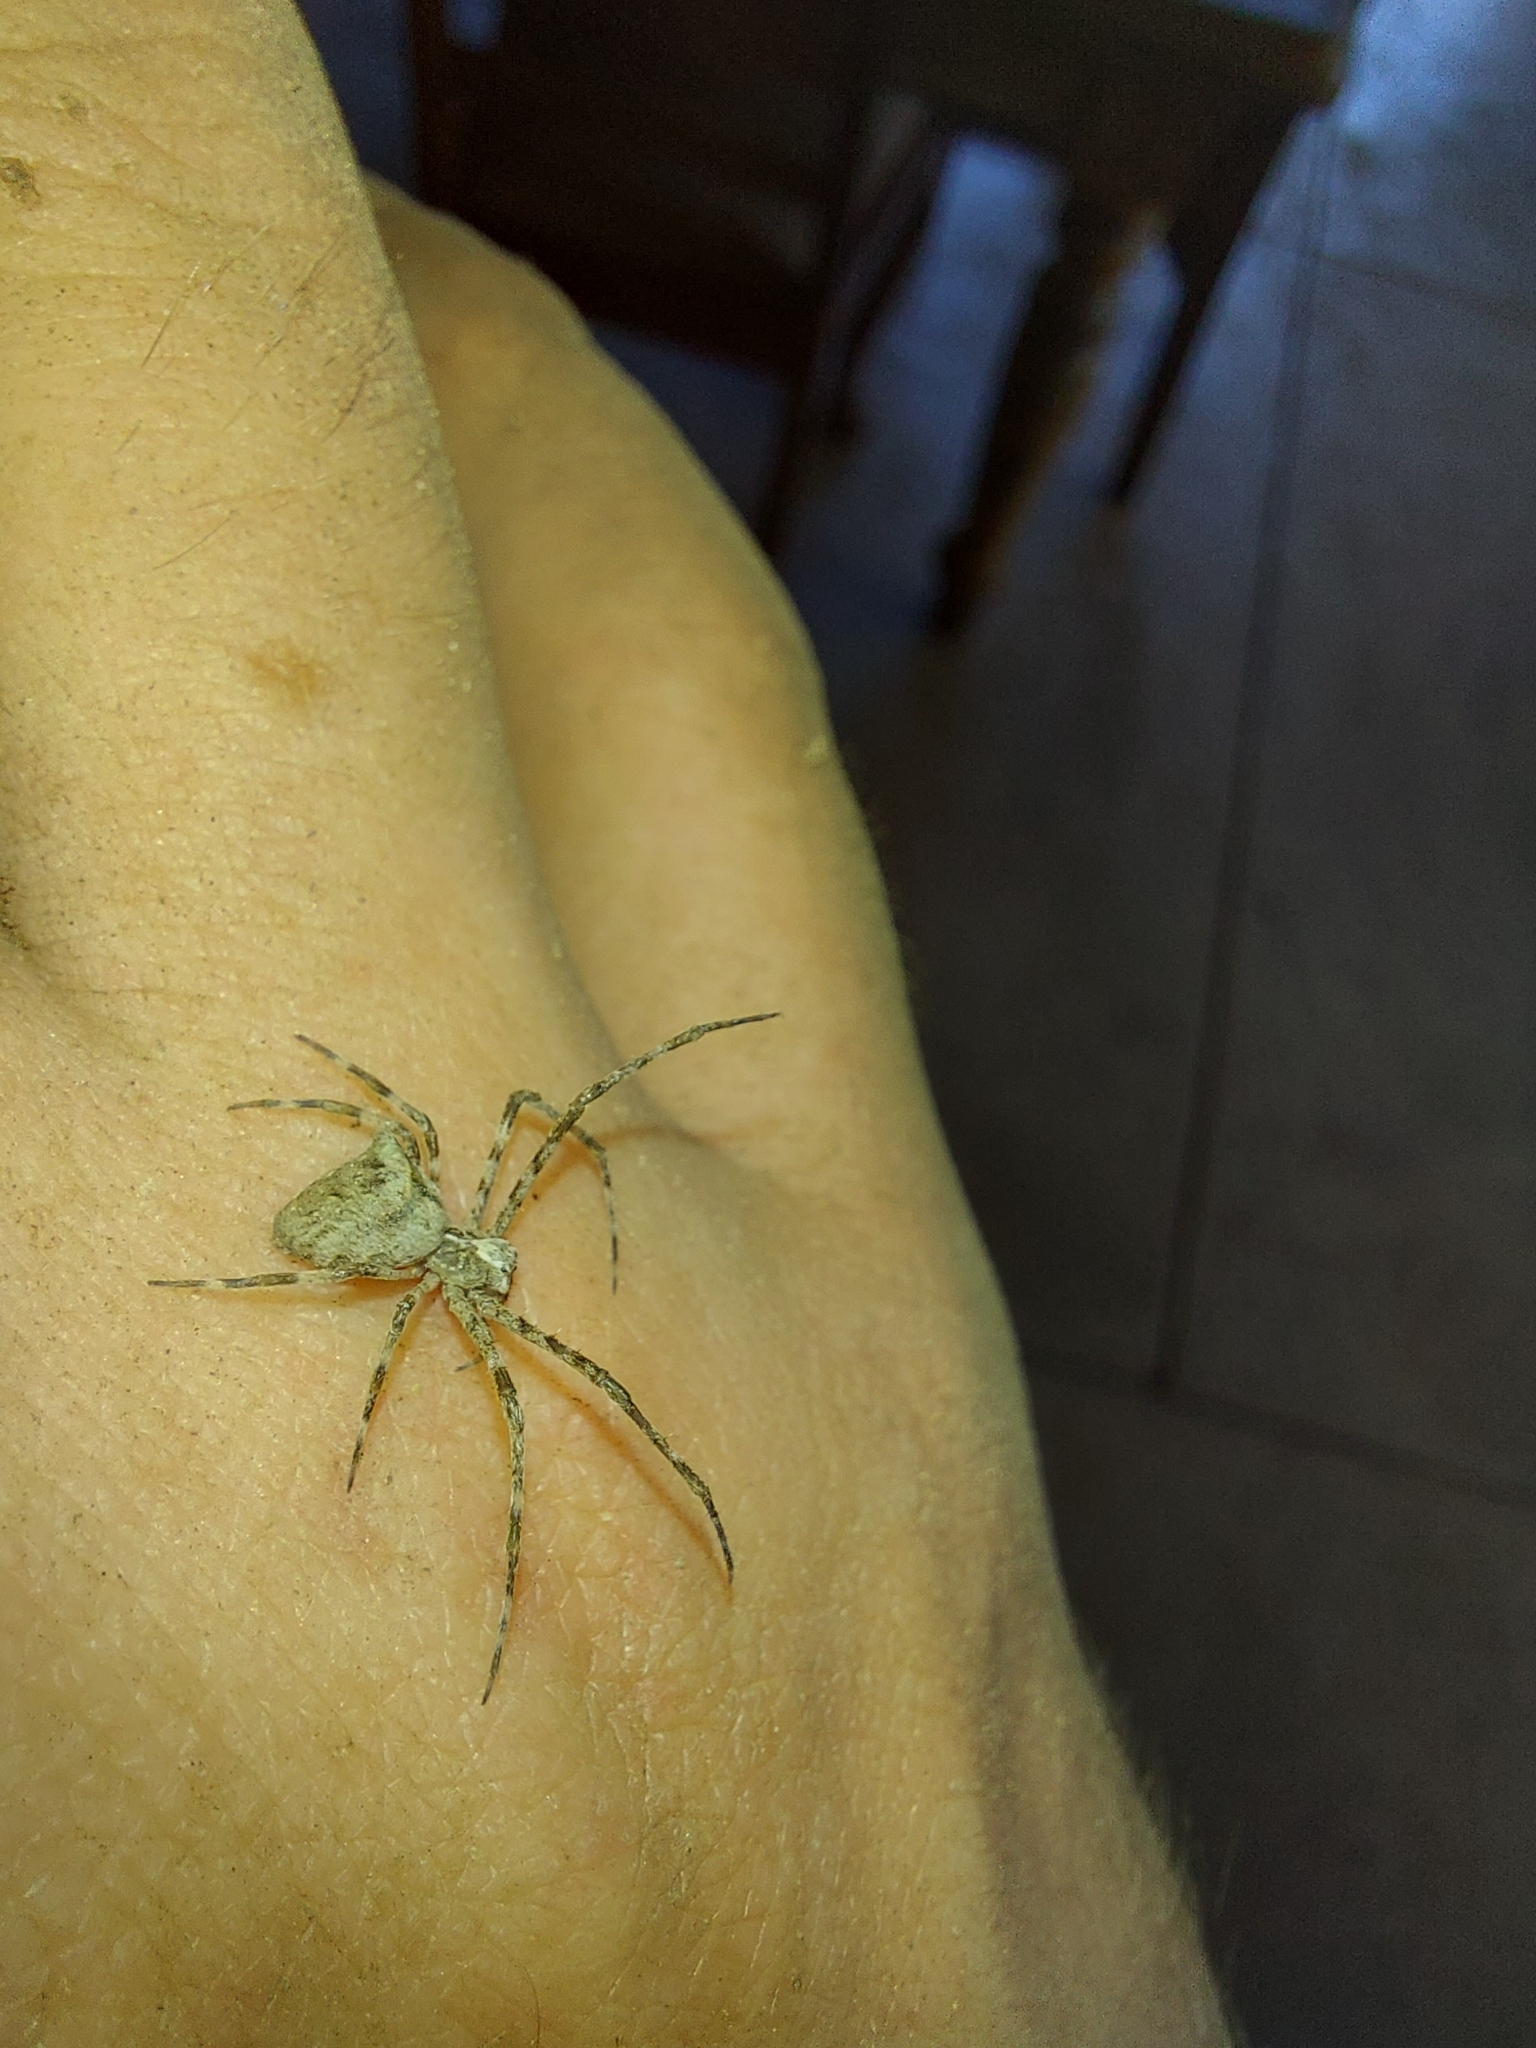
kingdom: Animalia
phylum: Arthropoda
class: Arachnida
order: Araneae
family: Deinopidae
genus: Menneus
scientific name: Menneus capensis
